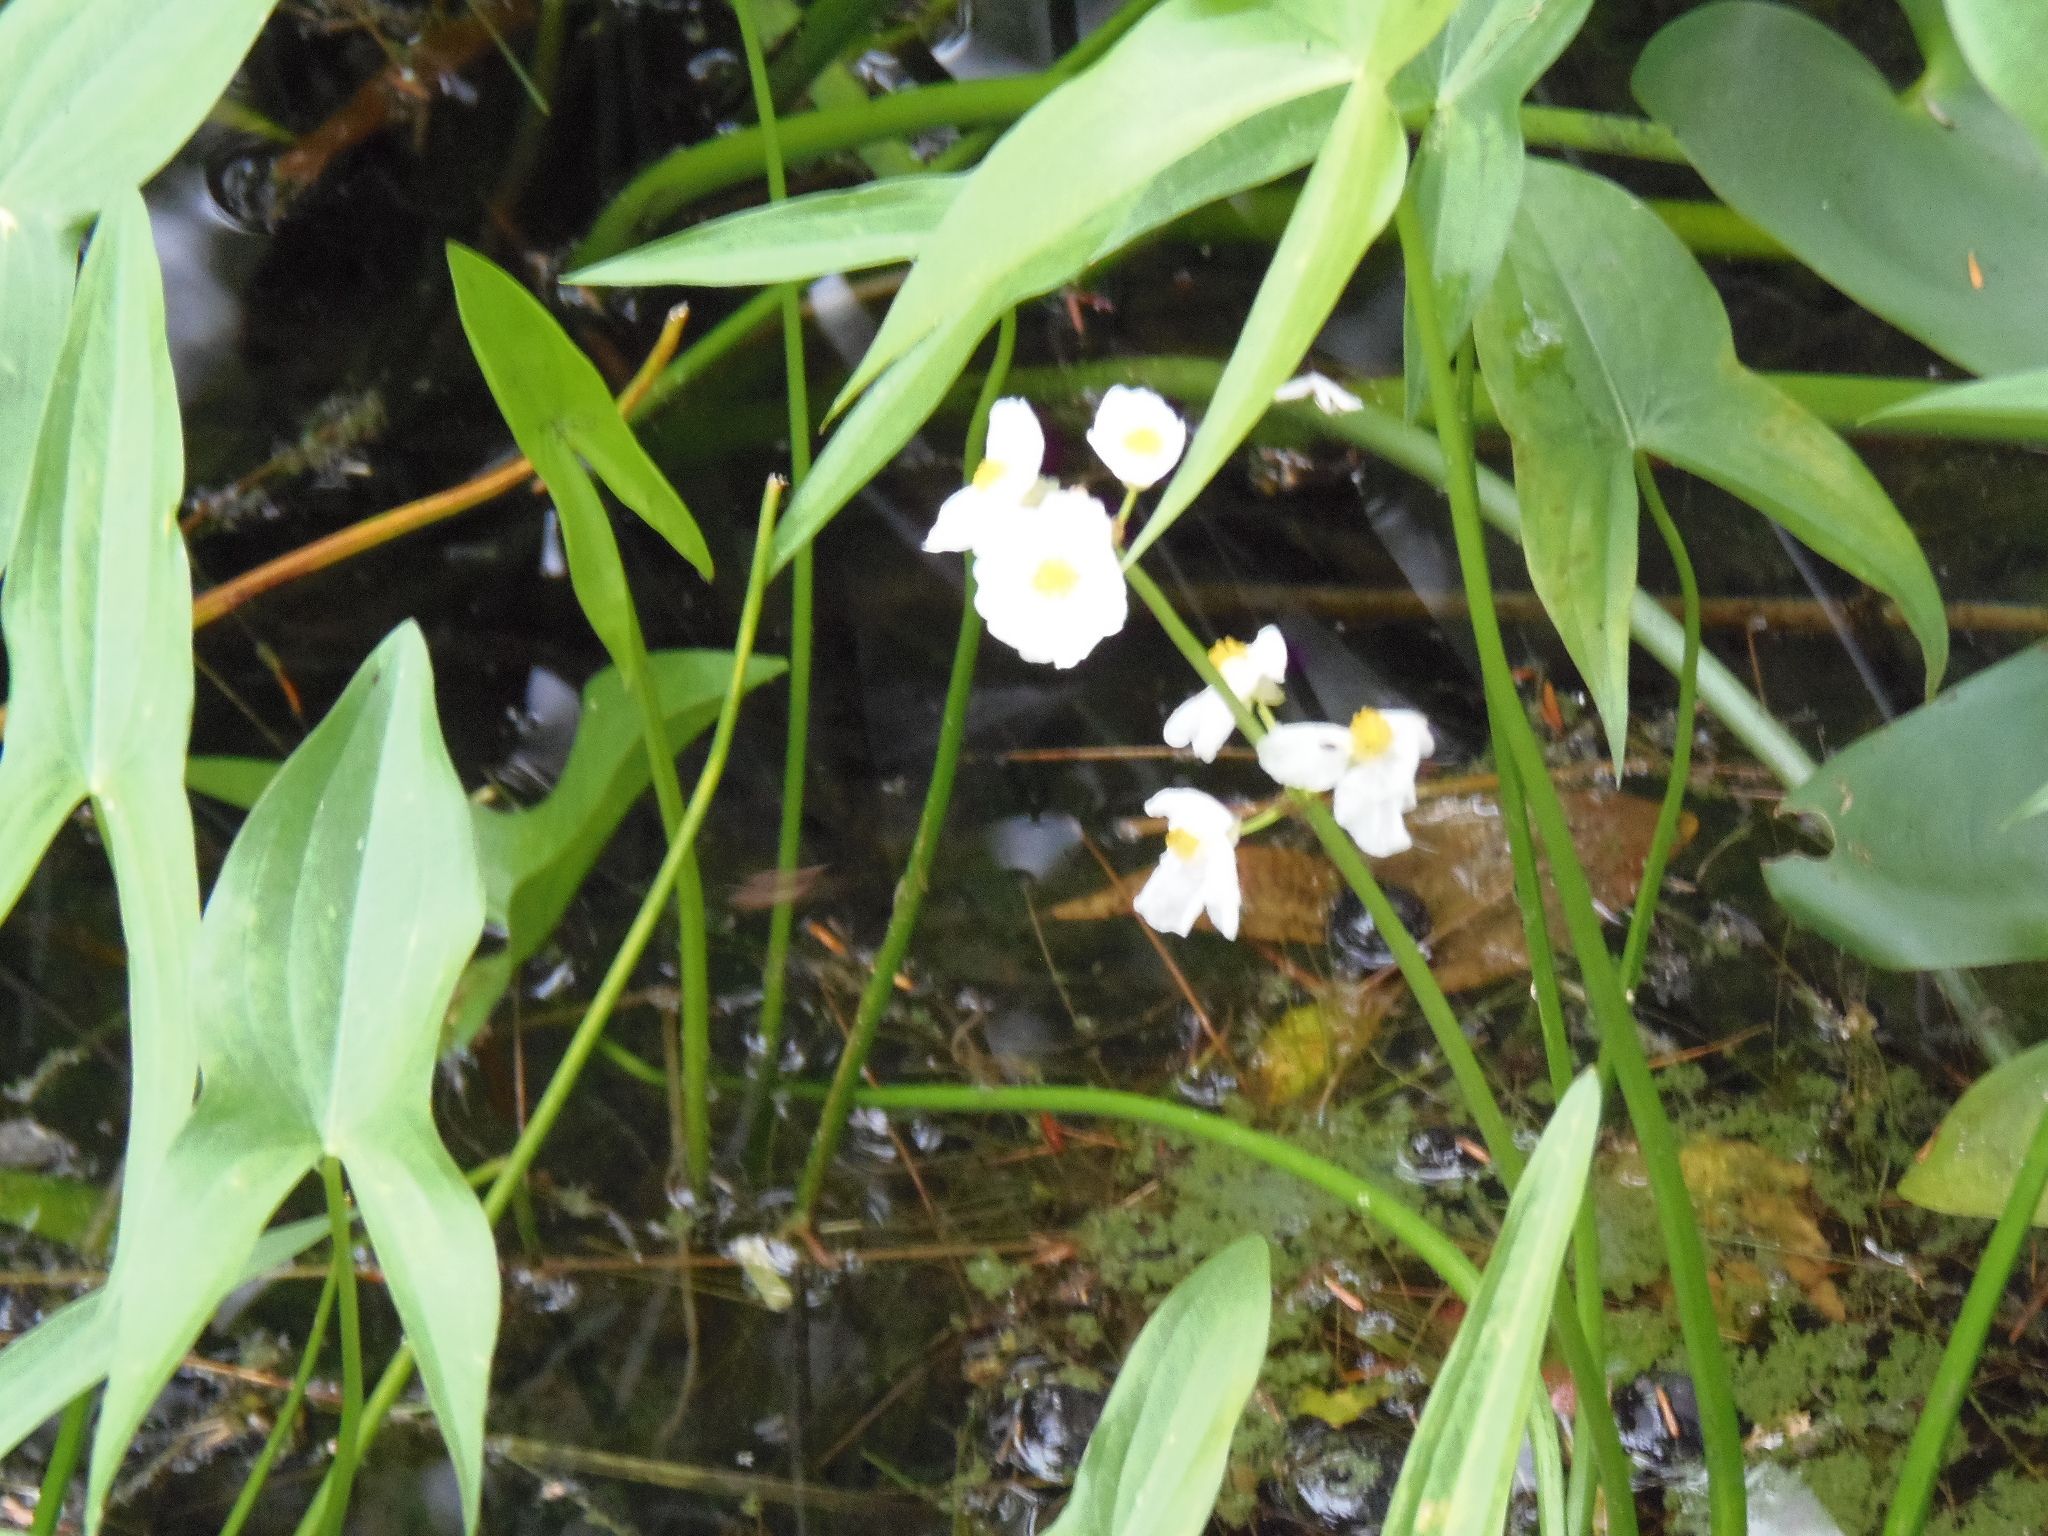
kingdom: Plantae
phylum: Tracheophyta
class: Liliopsida
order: Alismatales
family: Alismataceae
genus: Sagittaria
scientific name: Sagittaria latifolia
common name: Duck-potato
